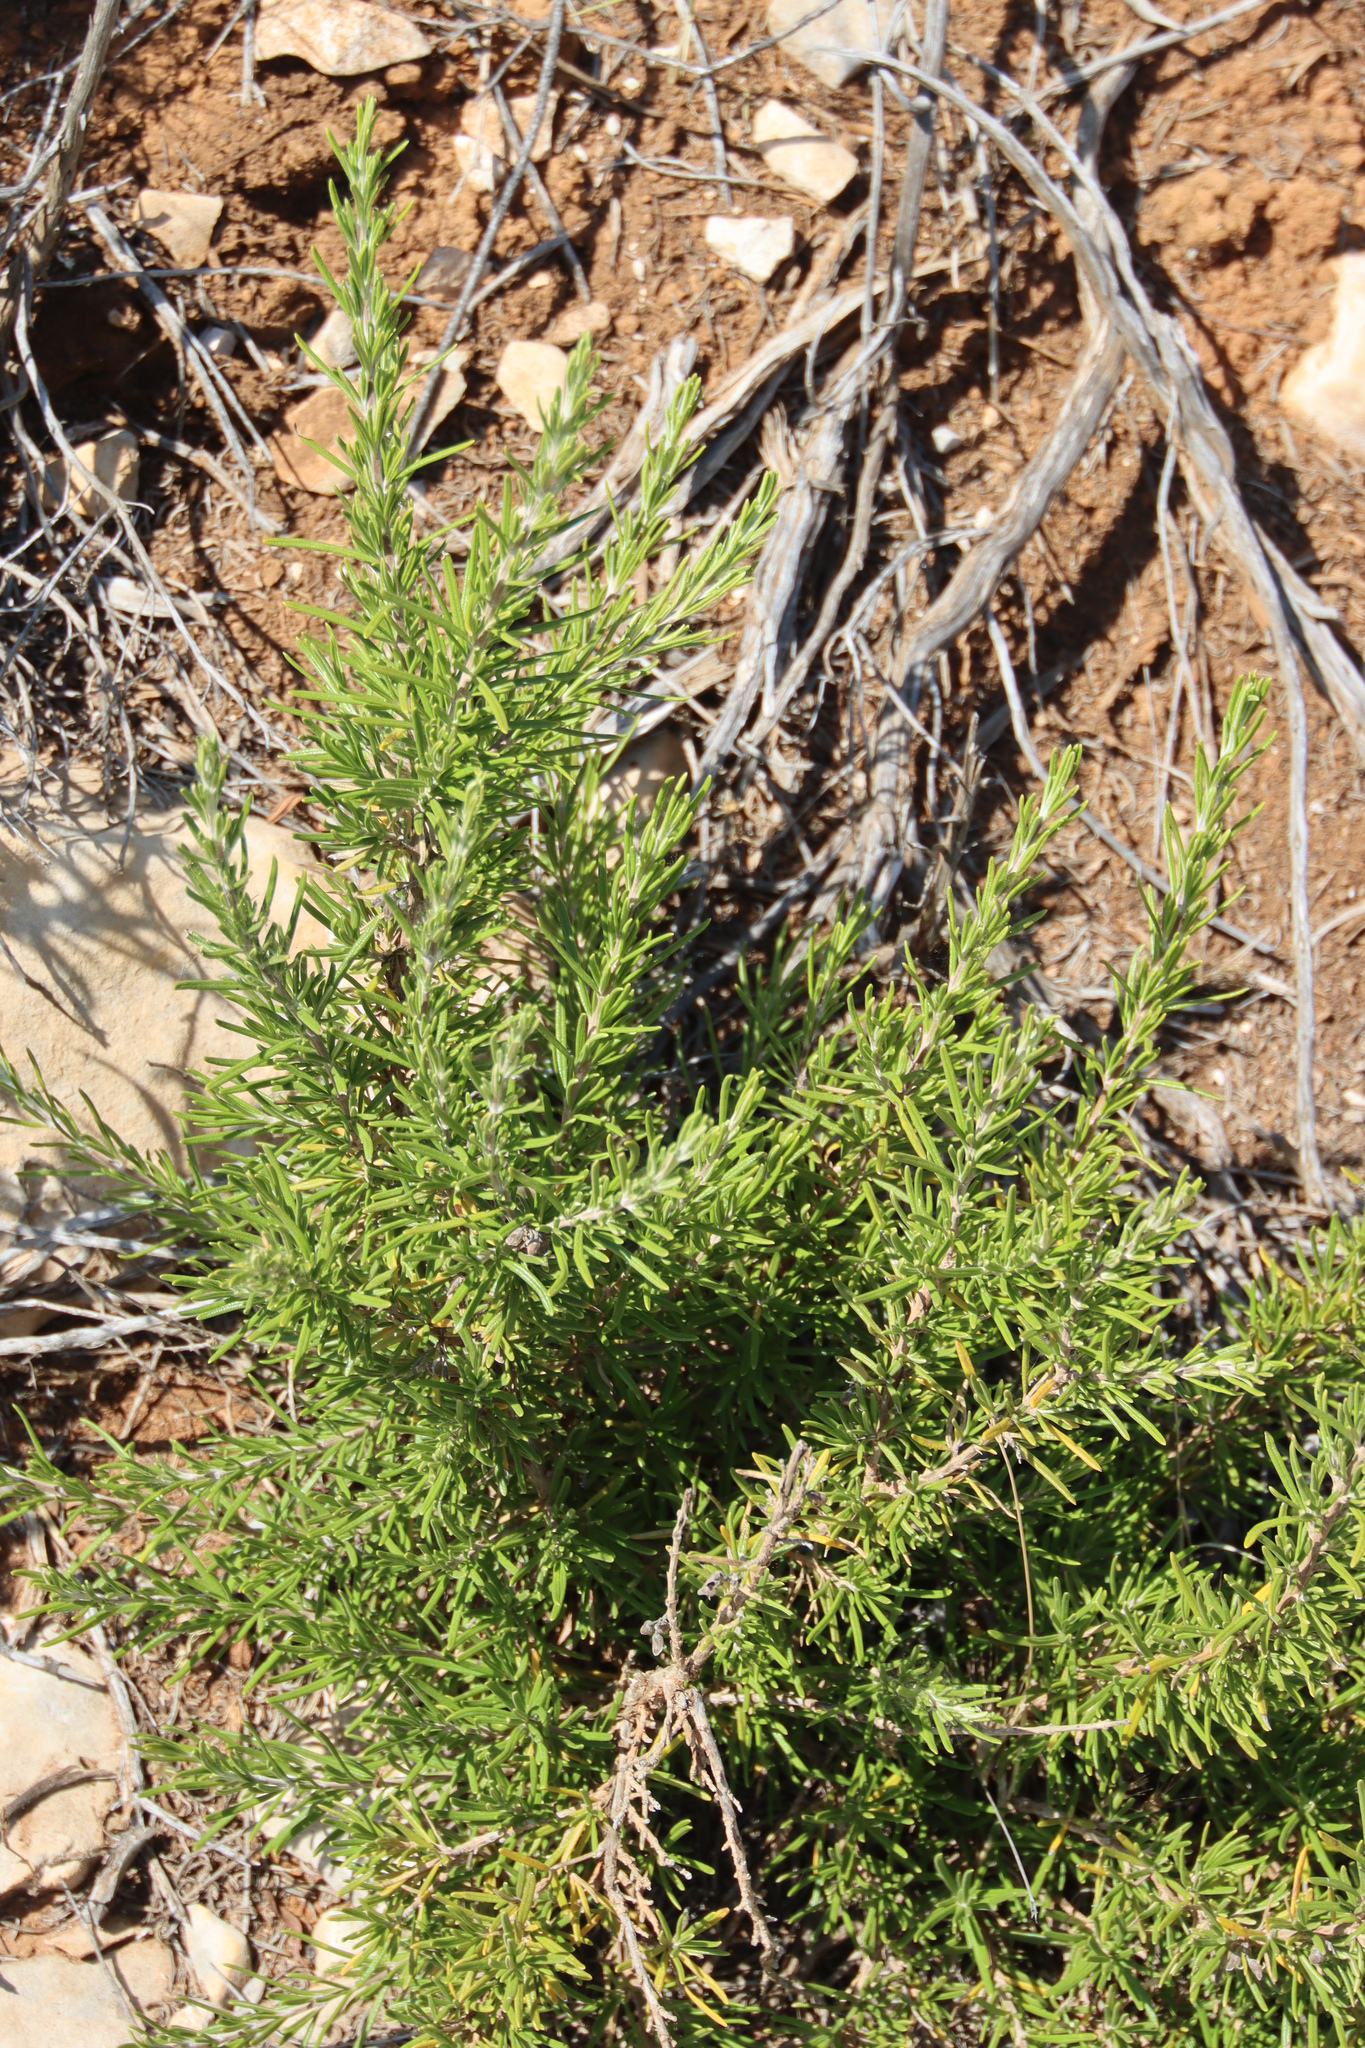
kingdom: Plantae
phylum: Tracheophyta
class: Magnoliopsida
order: Lamiales
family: Lamiaceae
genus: Salvia
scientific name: Salvia rosmarinus
